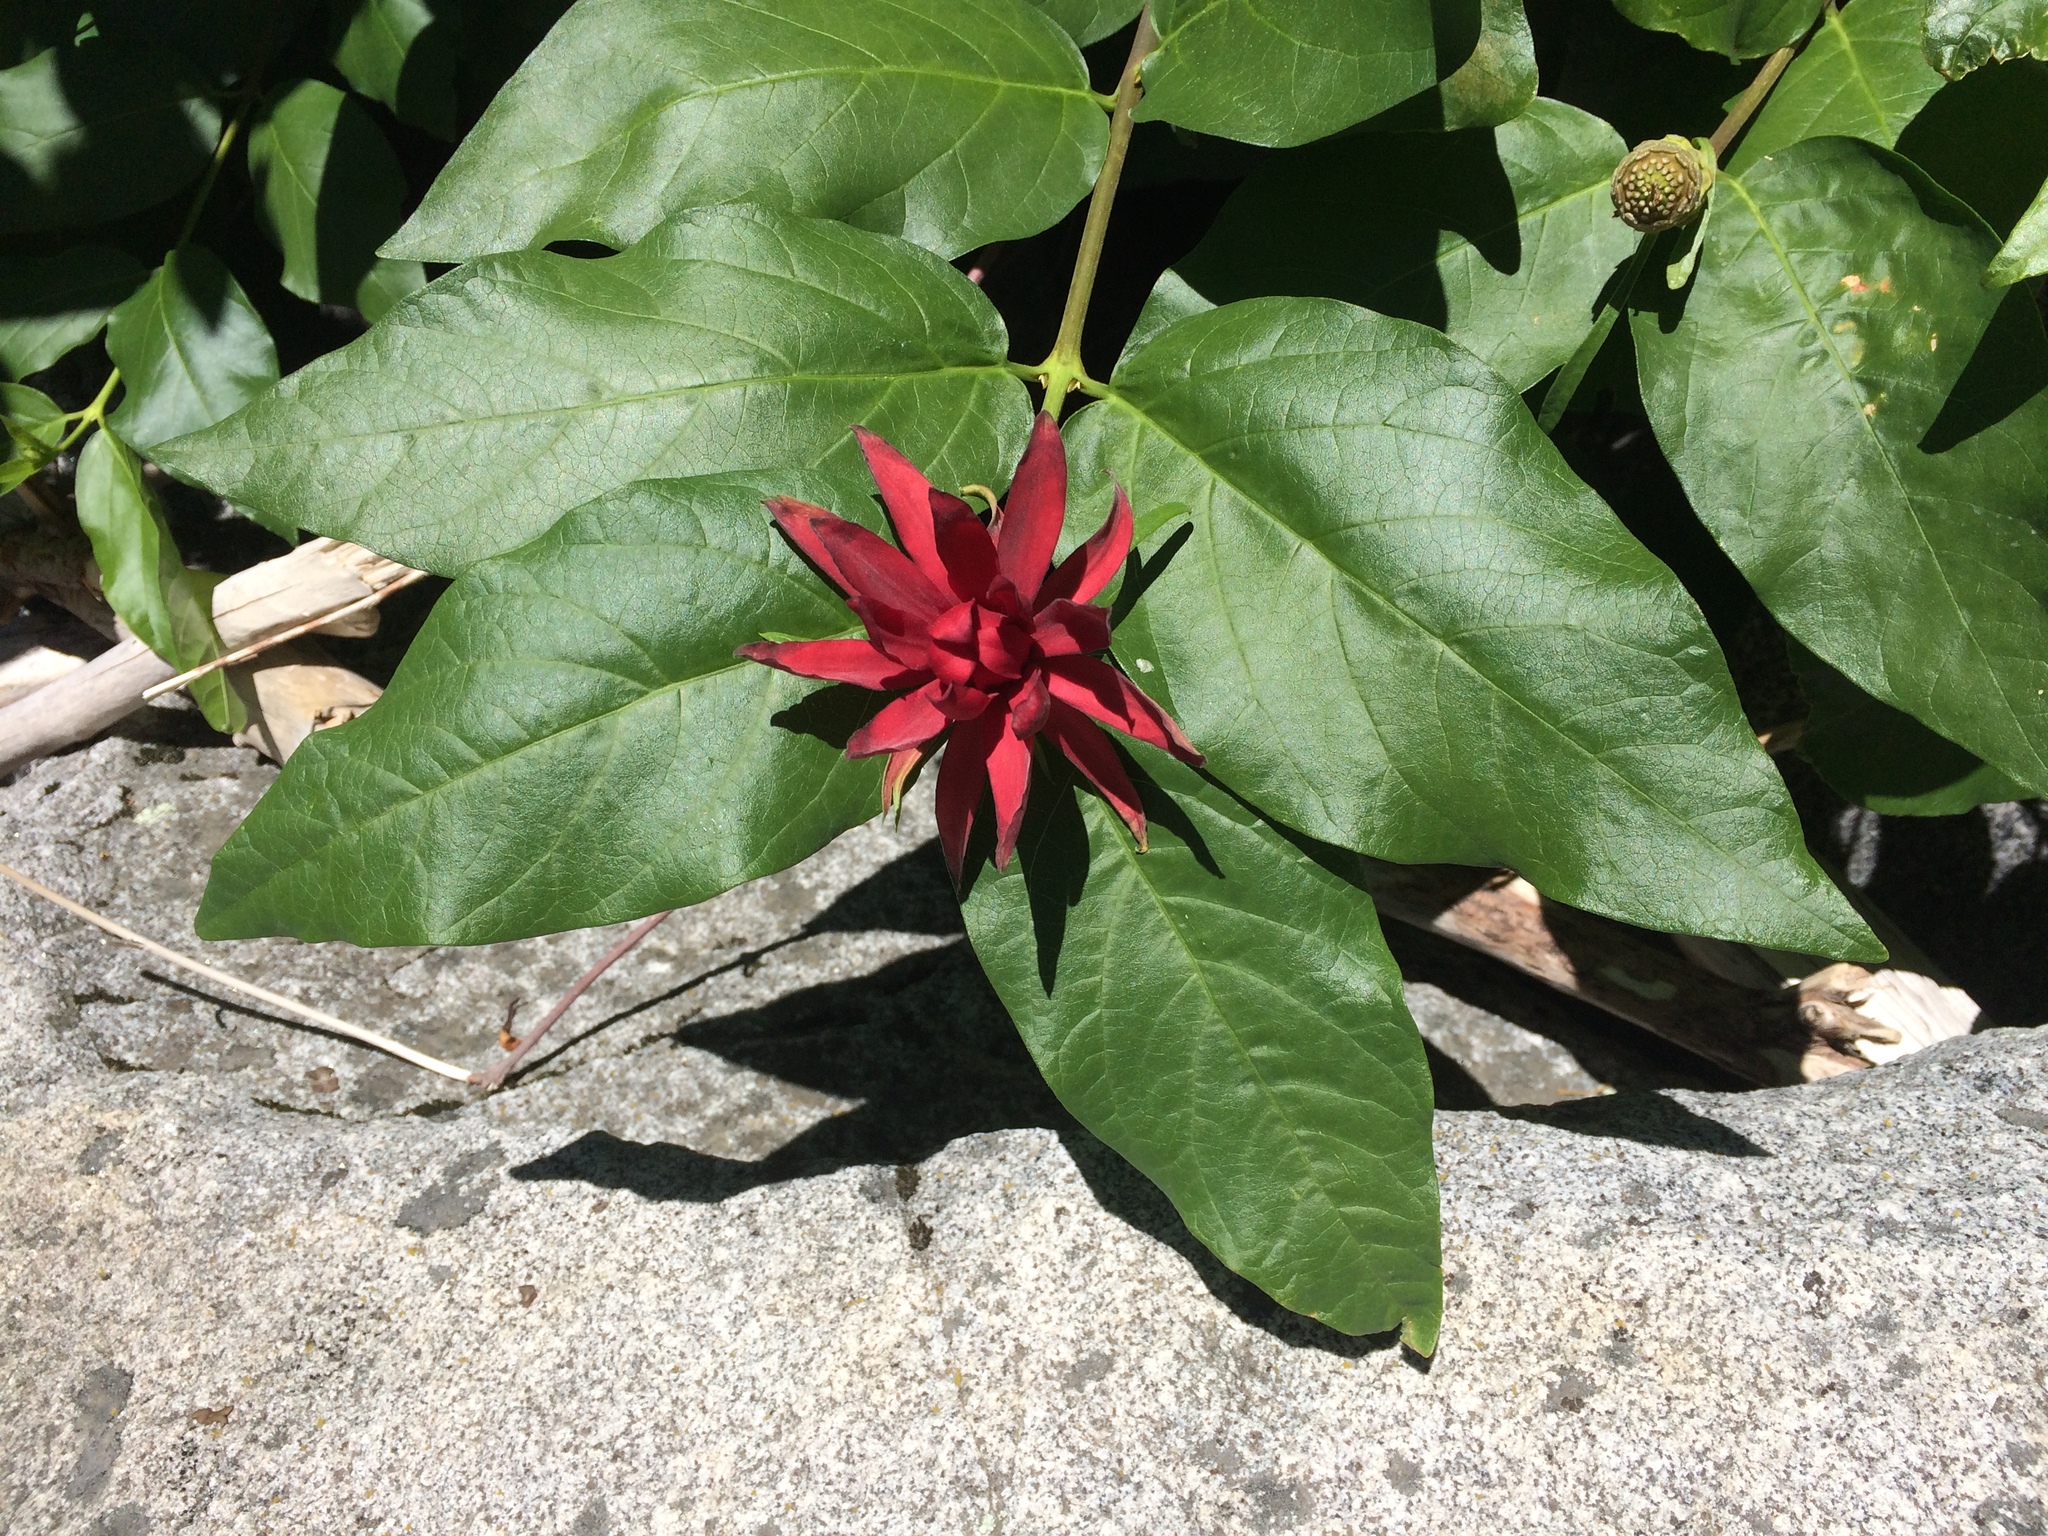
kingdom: Plantae
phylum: Tracheophyta
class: Magnoliopsida
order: Laurales
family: Calycanthaceae
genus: Calycanthus
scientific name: Calycanthus occidentalis
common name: California spicebush
